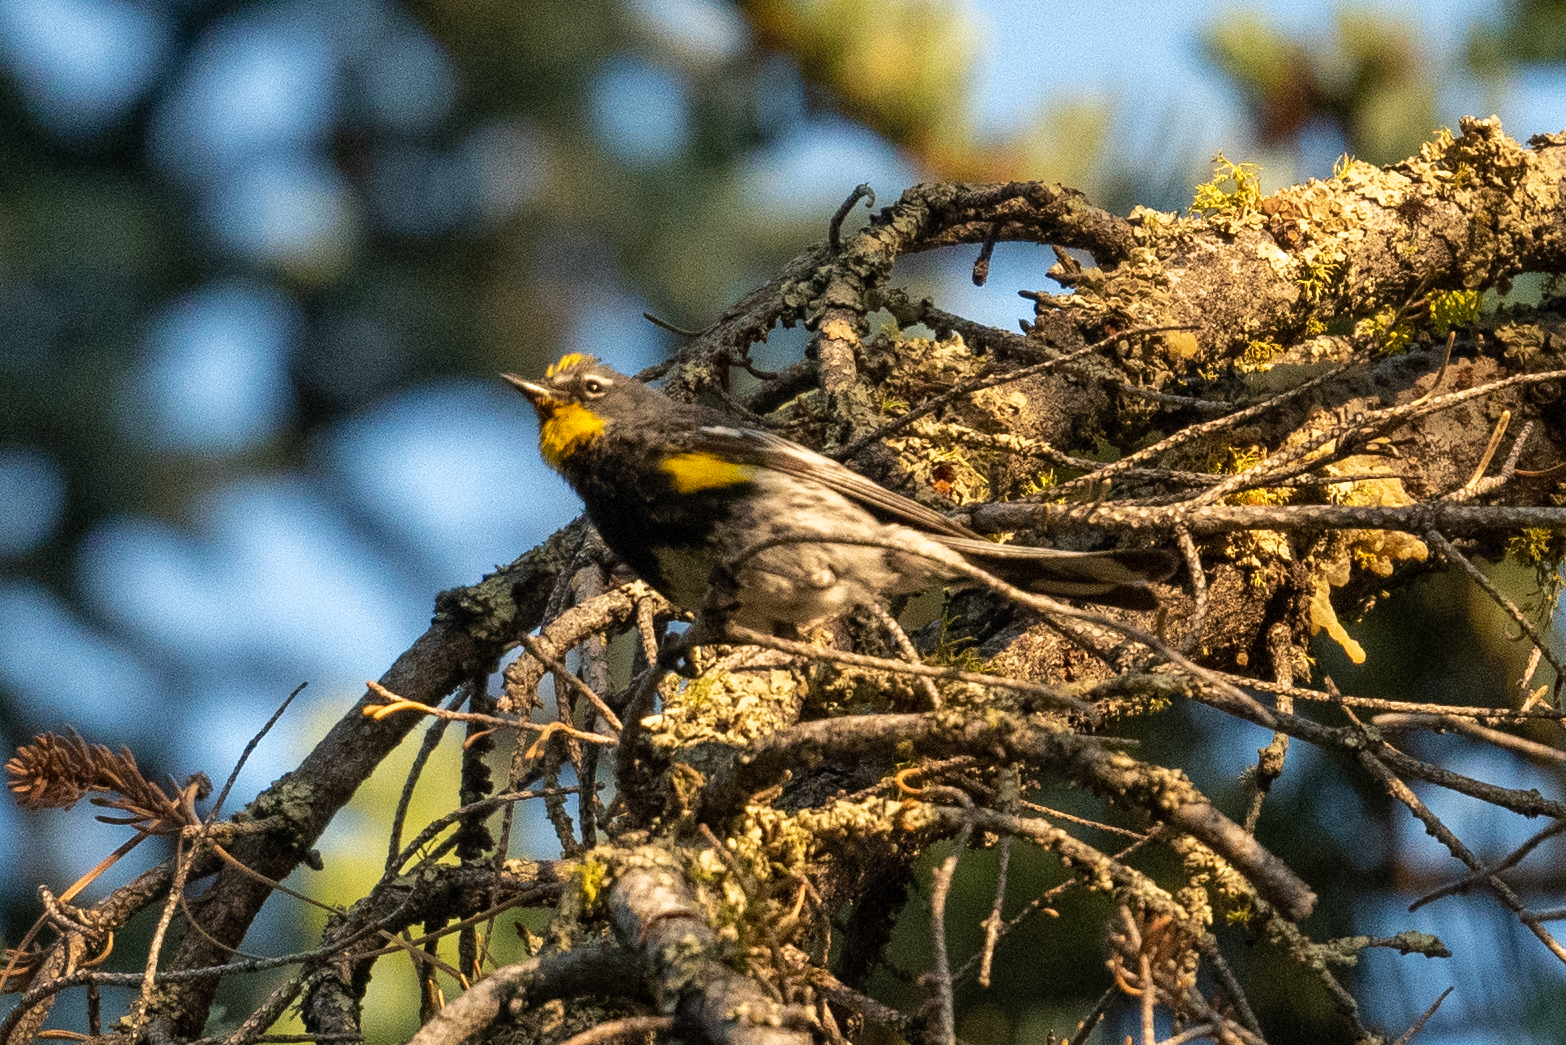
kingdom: Animalia
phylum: Chordata
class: Aves
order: Passeriformes
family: Parulidae
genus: Setophaga
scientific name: Setophaga auduboni
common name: Audubon's warbler
